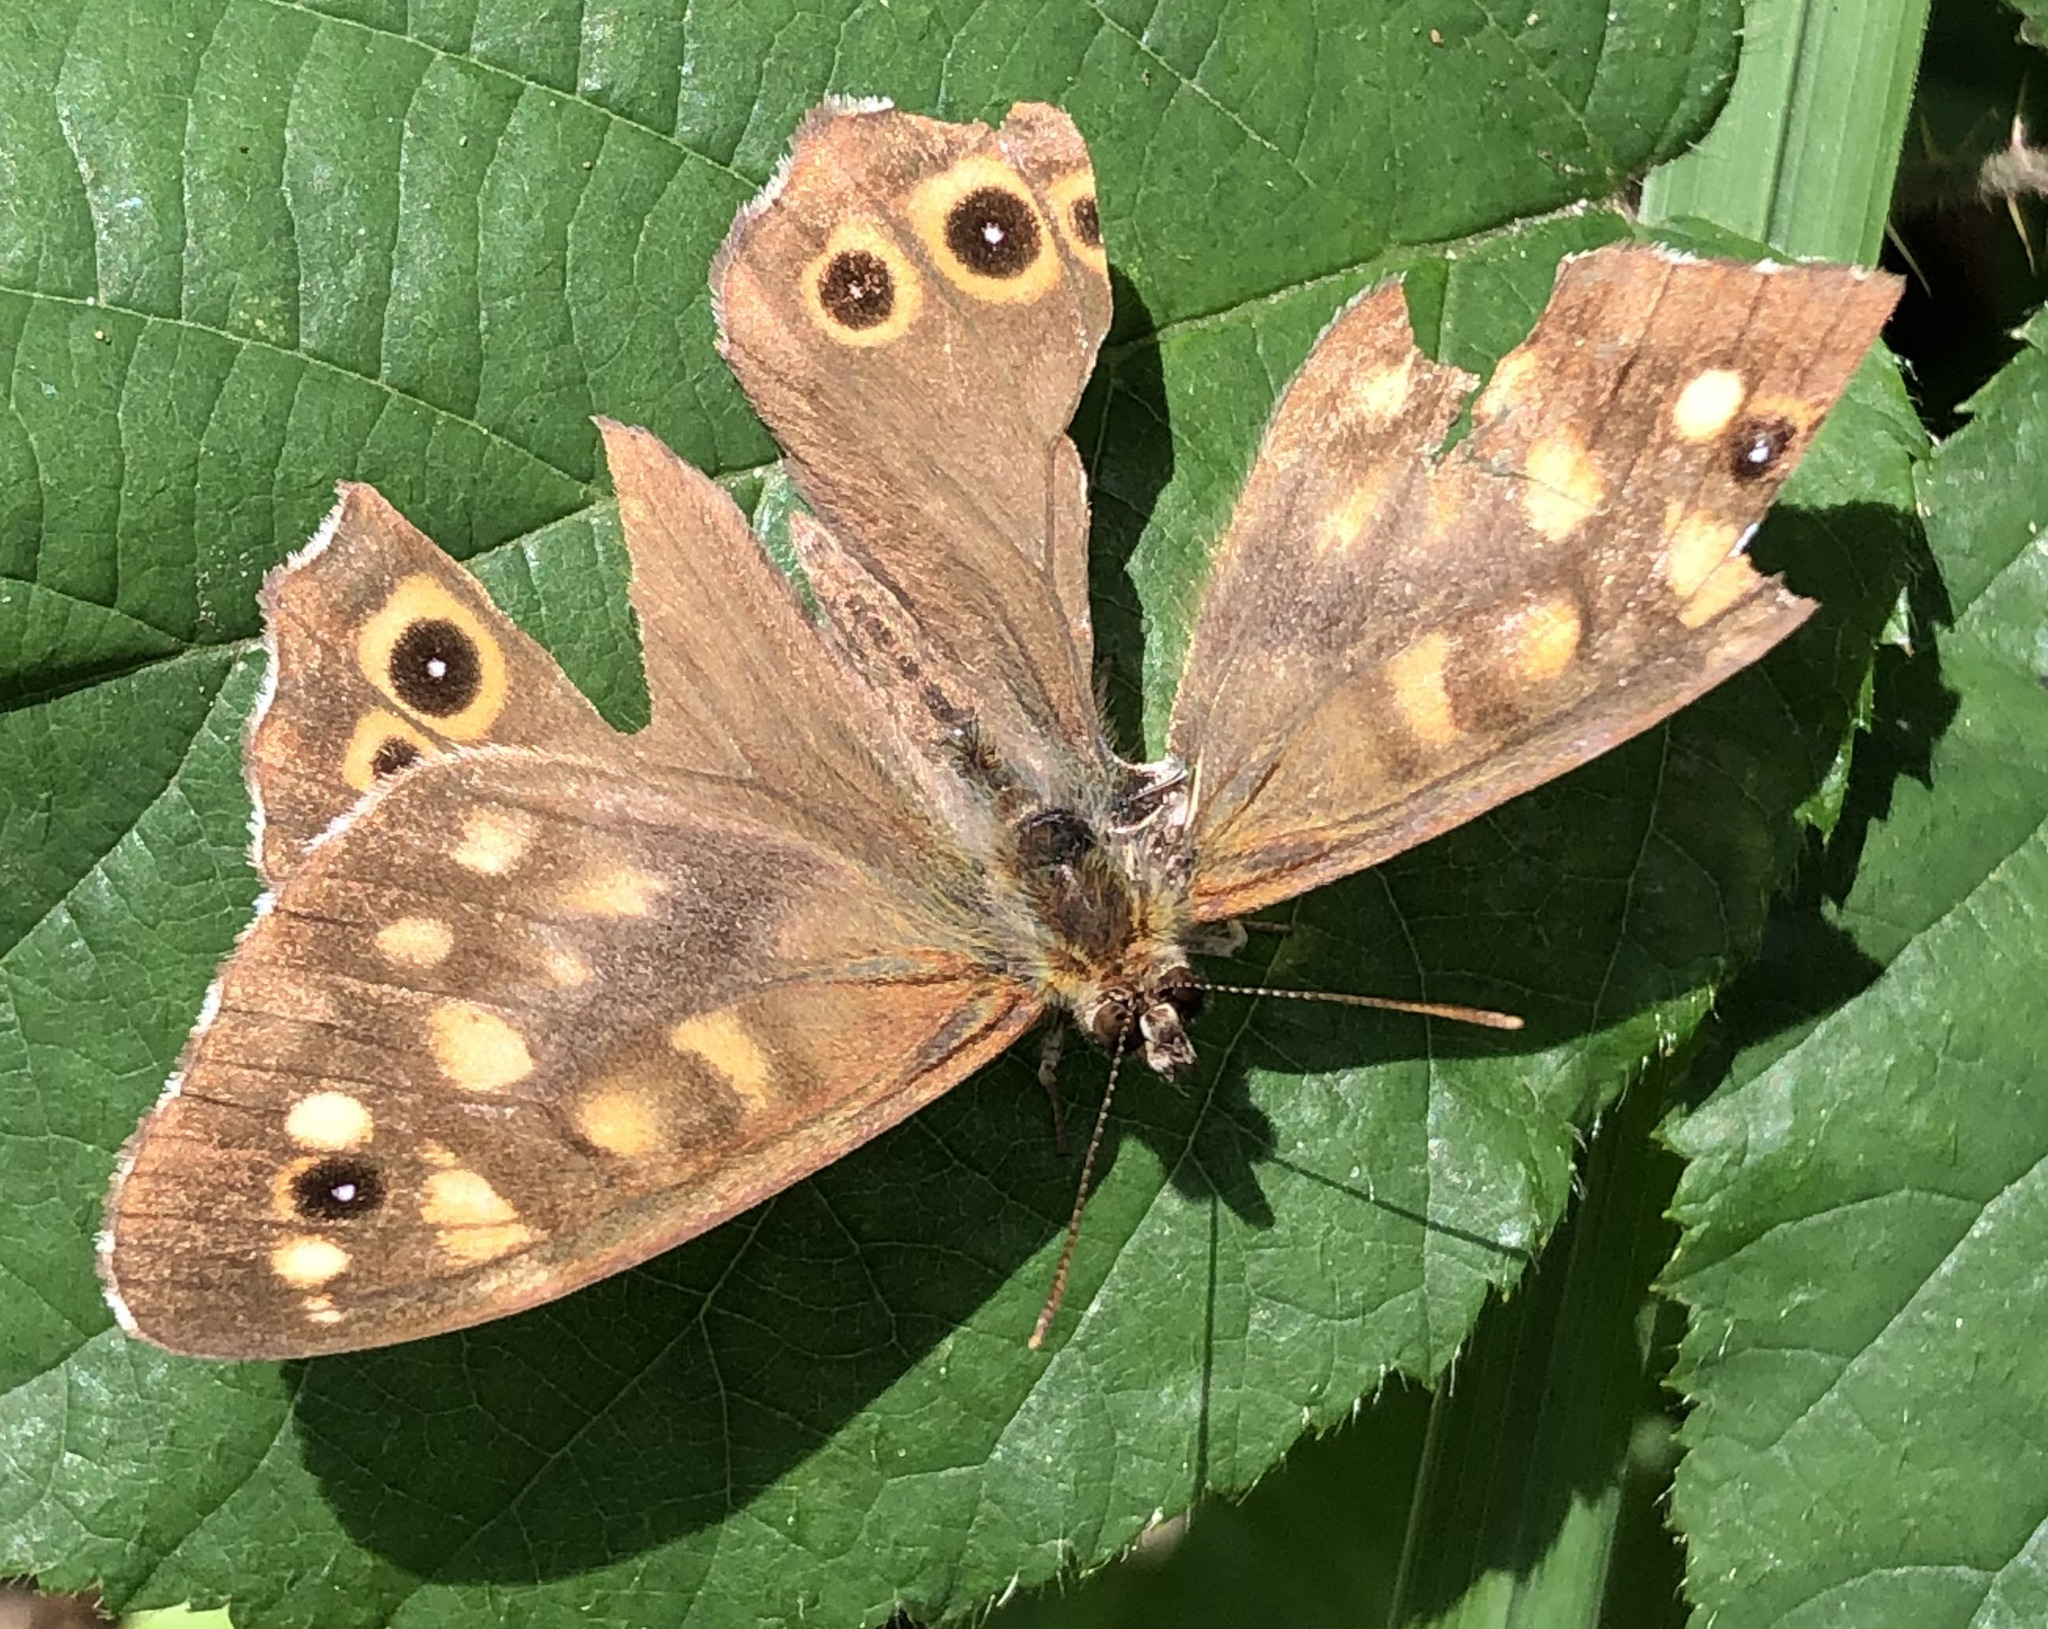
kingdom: Animalia
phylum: Arthropoda
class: Insecta
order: Lepidoptera
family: Nymphalidae
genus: Pararge
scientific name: Pararge aegeria
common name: Speckled wood
